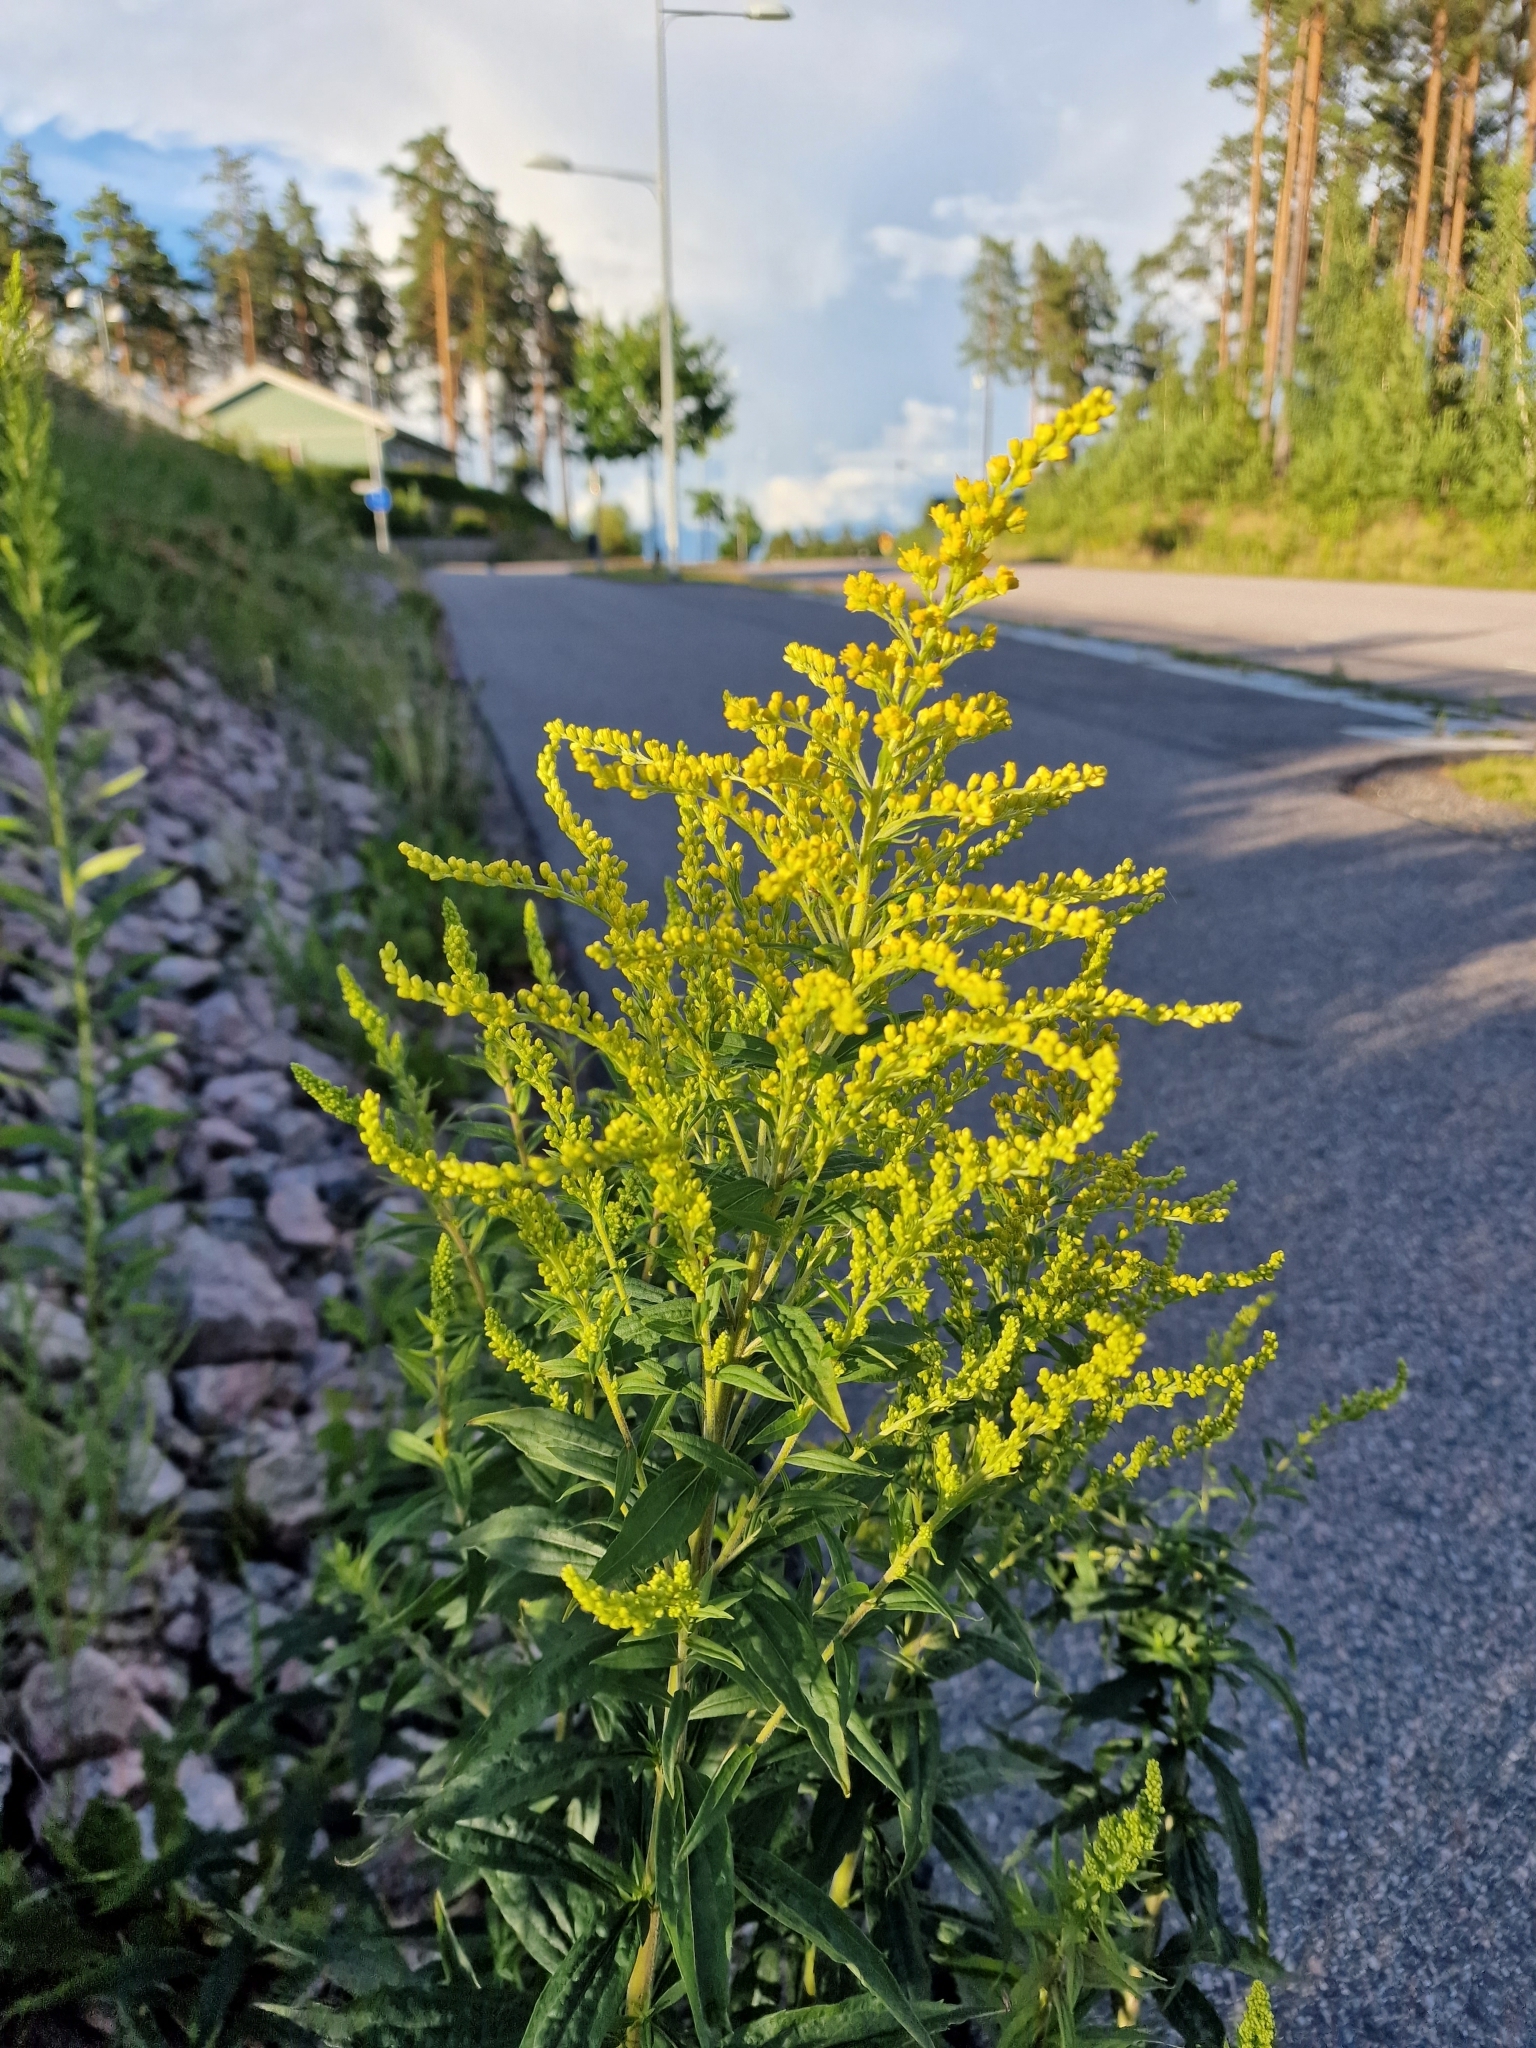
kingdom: Plantae
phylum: Tracheophyta
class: Magnoliopsida
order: Asterales
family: Asteraceae
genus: Solidago
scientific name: Solidago canadensis
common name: Canada goldenrod
